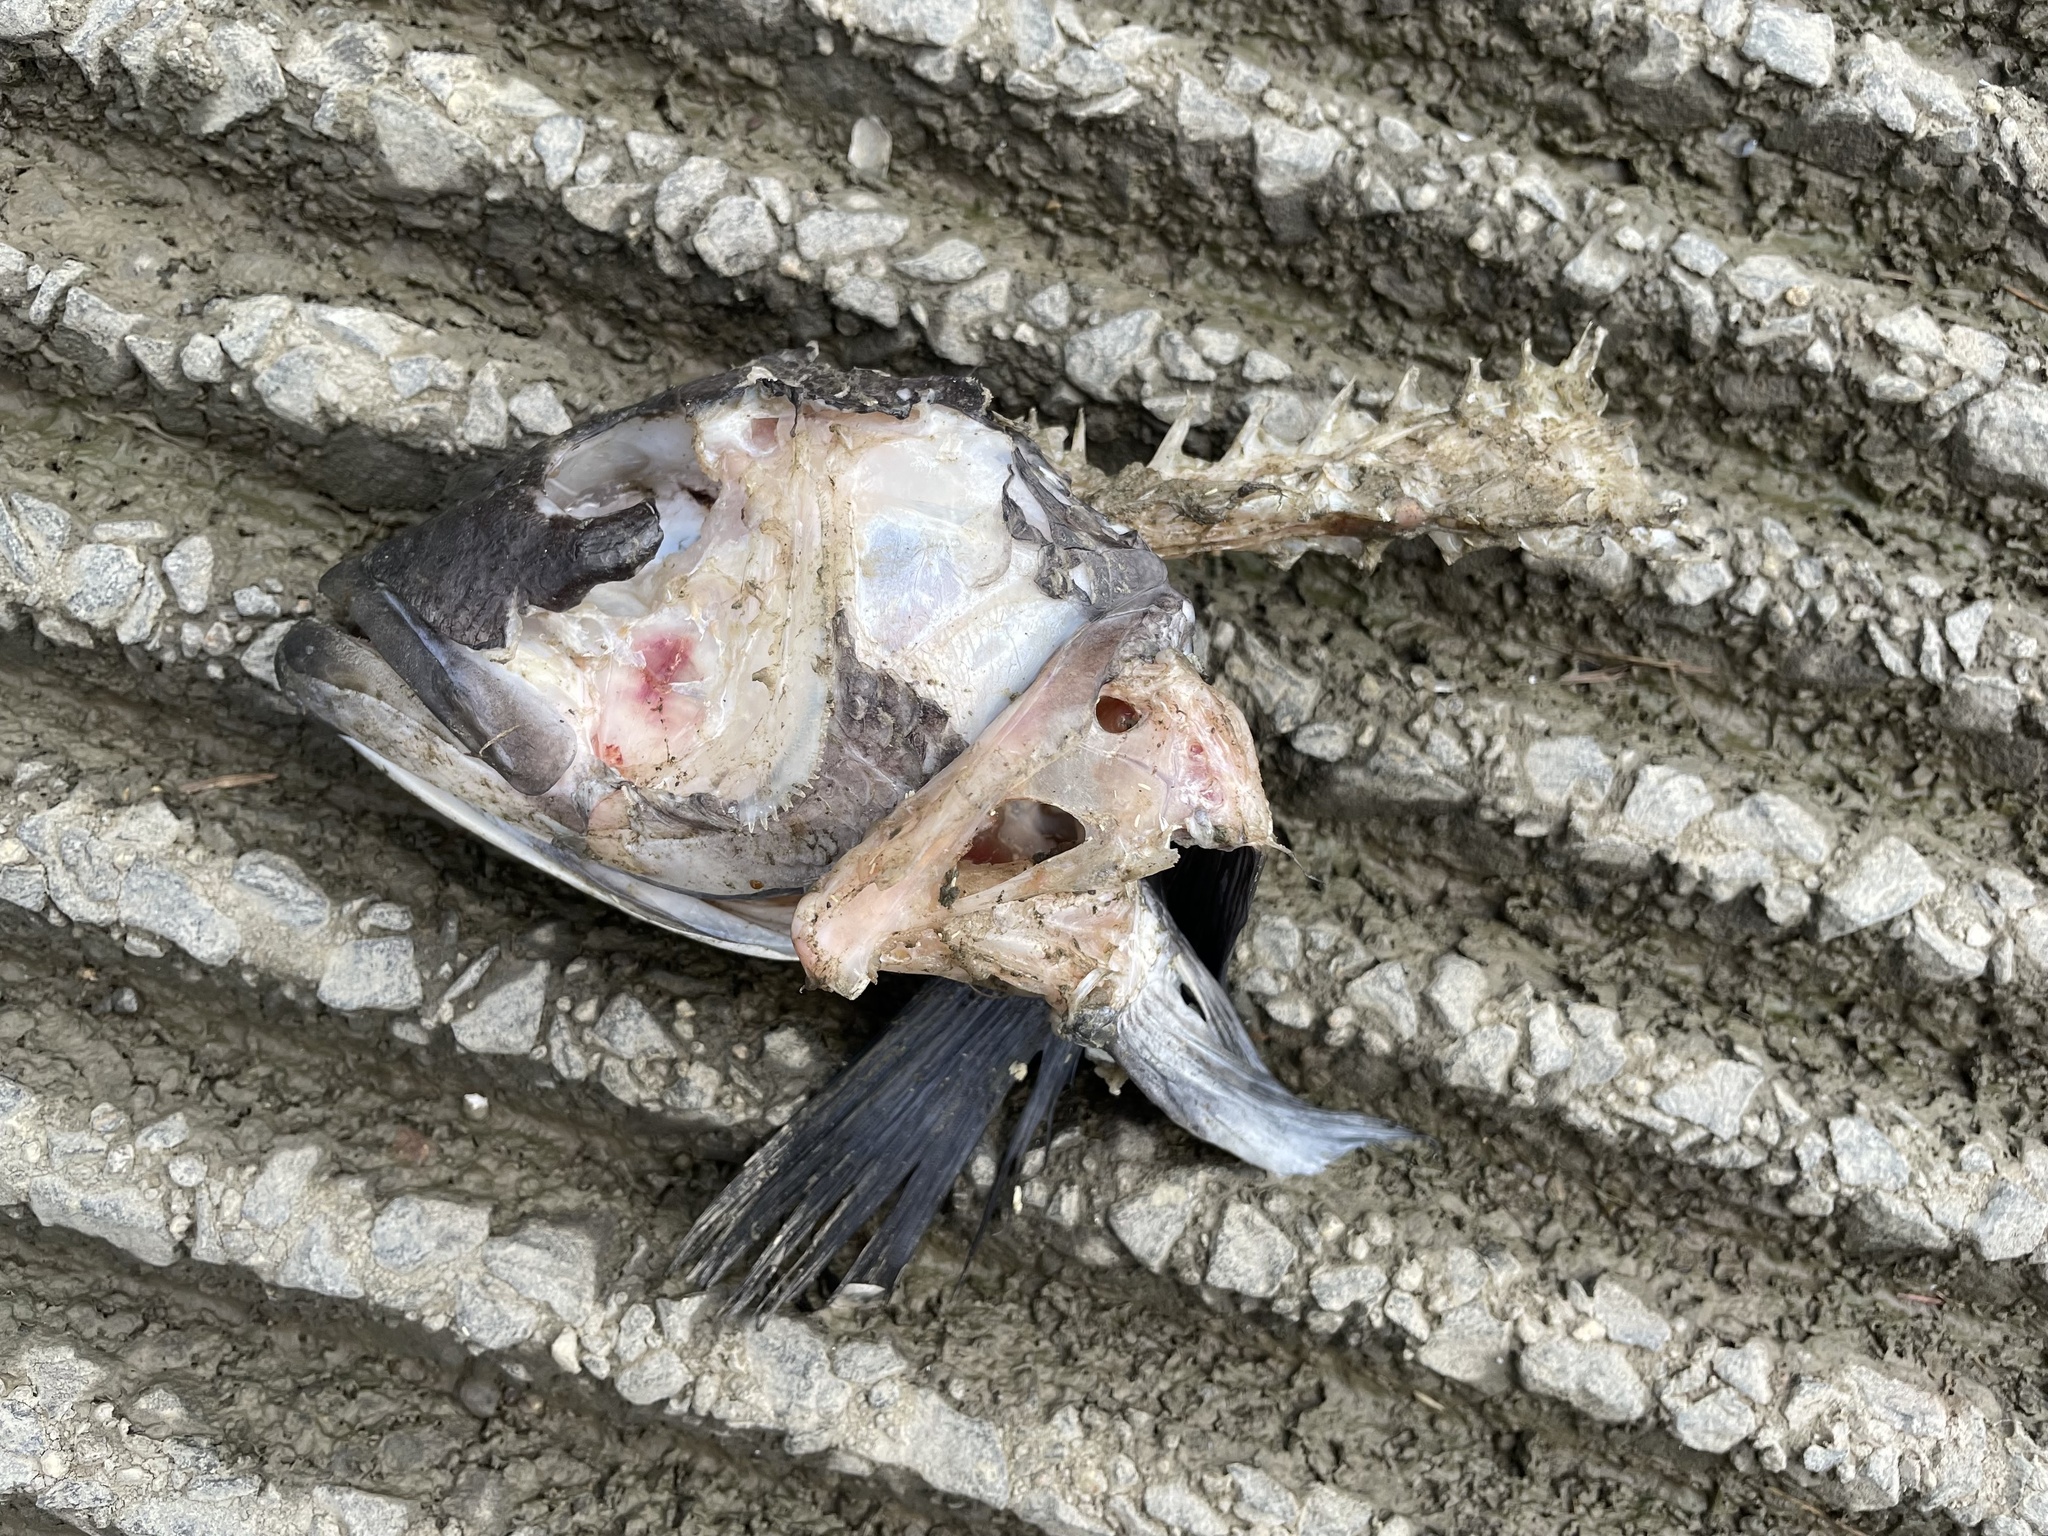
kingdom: Animalia
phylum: Chordata
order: Perciformes
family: Serranidae
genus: Centropristis
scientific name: Centropristis striata
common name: Black sea bass
